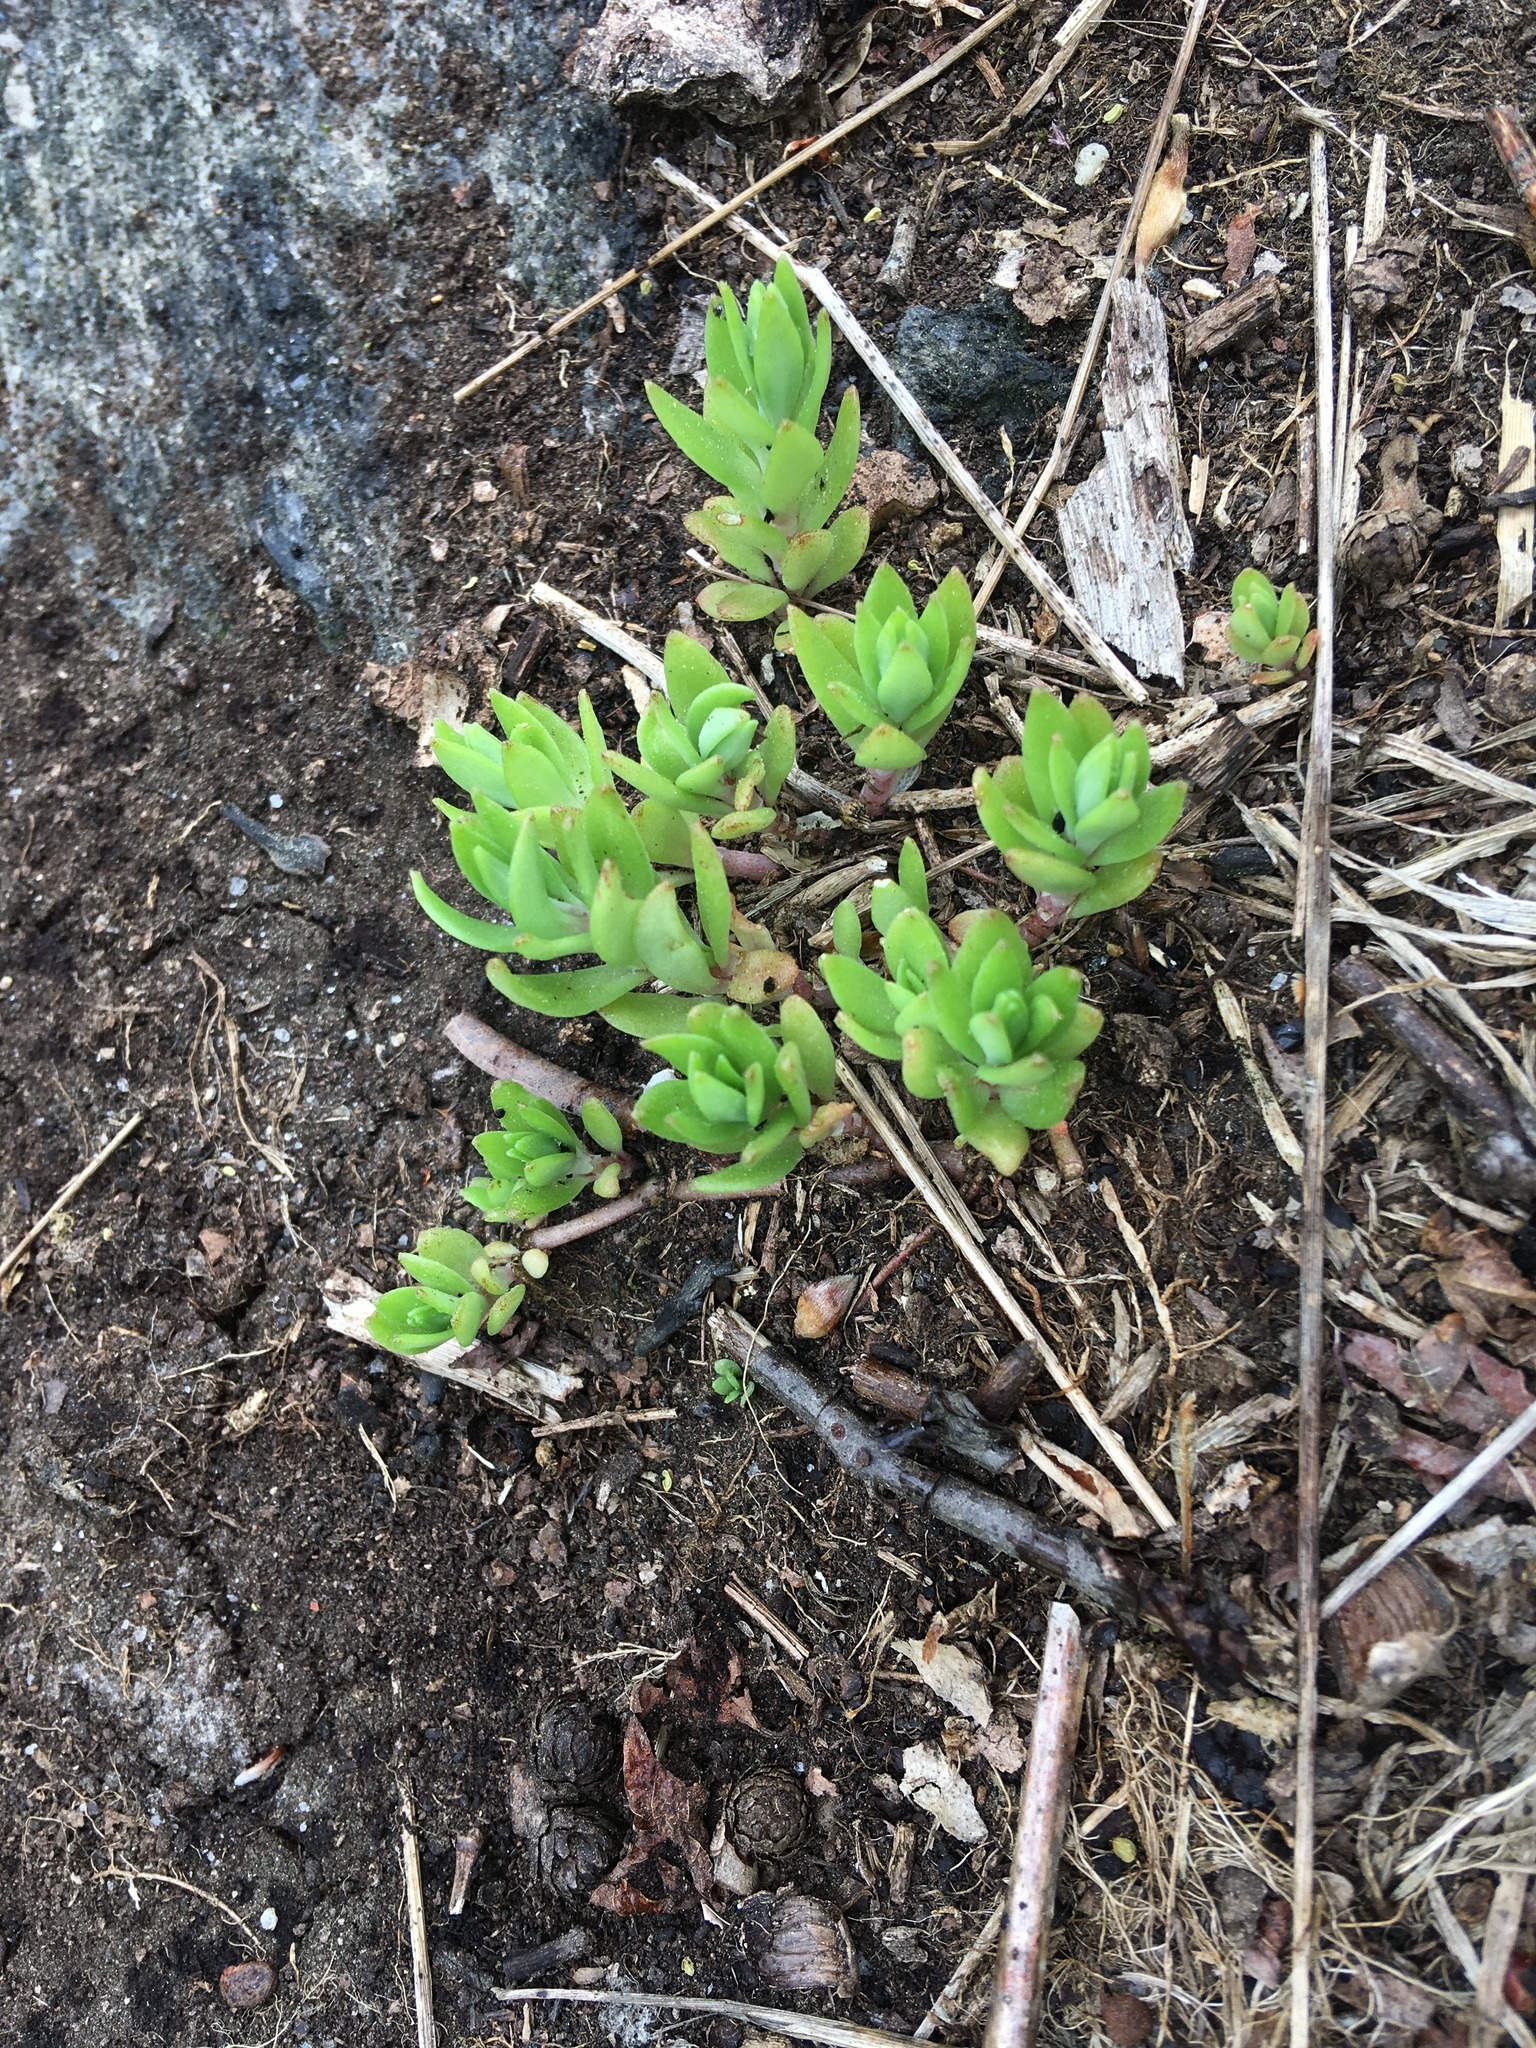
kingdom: Plantae
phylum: Tracheophyta
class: Magnoliopsida
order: Saxifragales
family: Crassulaceae
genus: Sedum
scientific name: Sedum sarmentosum
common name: Stringy stonecrop
